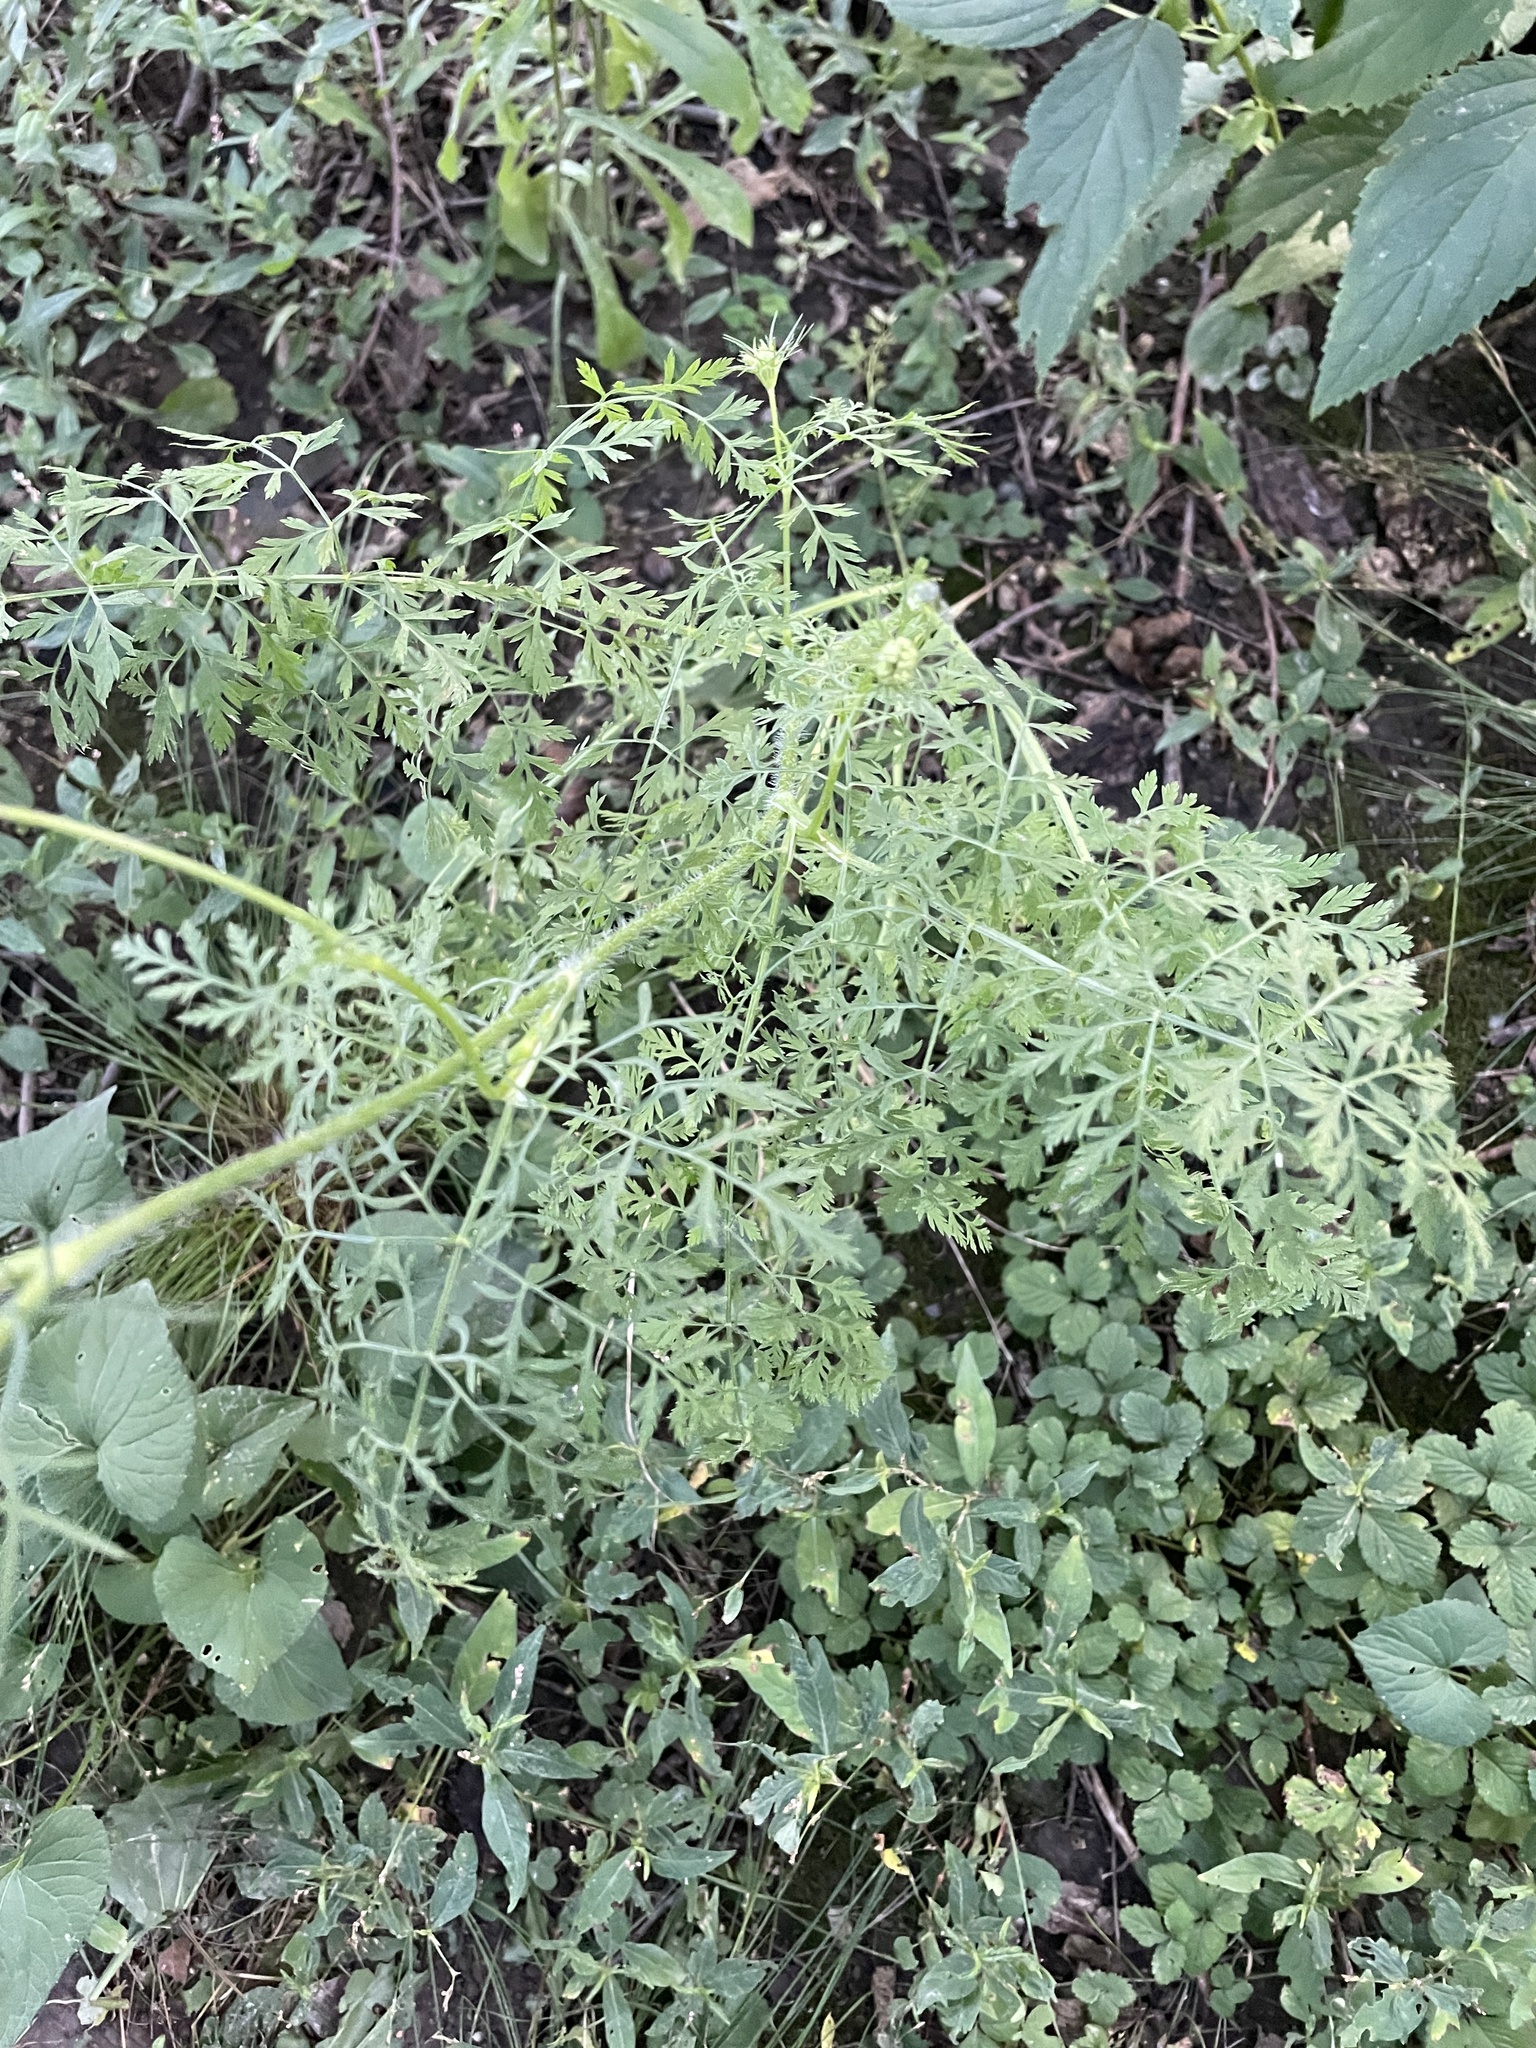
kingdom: Plantae
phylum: Tracheophyta
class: Magnoliopsida
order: Apiales
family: Apiaceae
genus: Daucus
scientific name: Daucus carota
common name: Wild carrot
